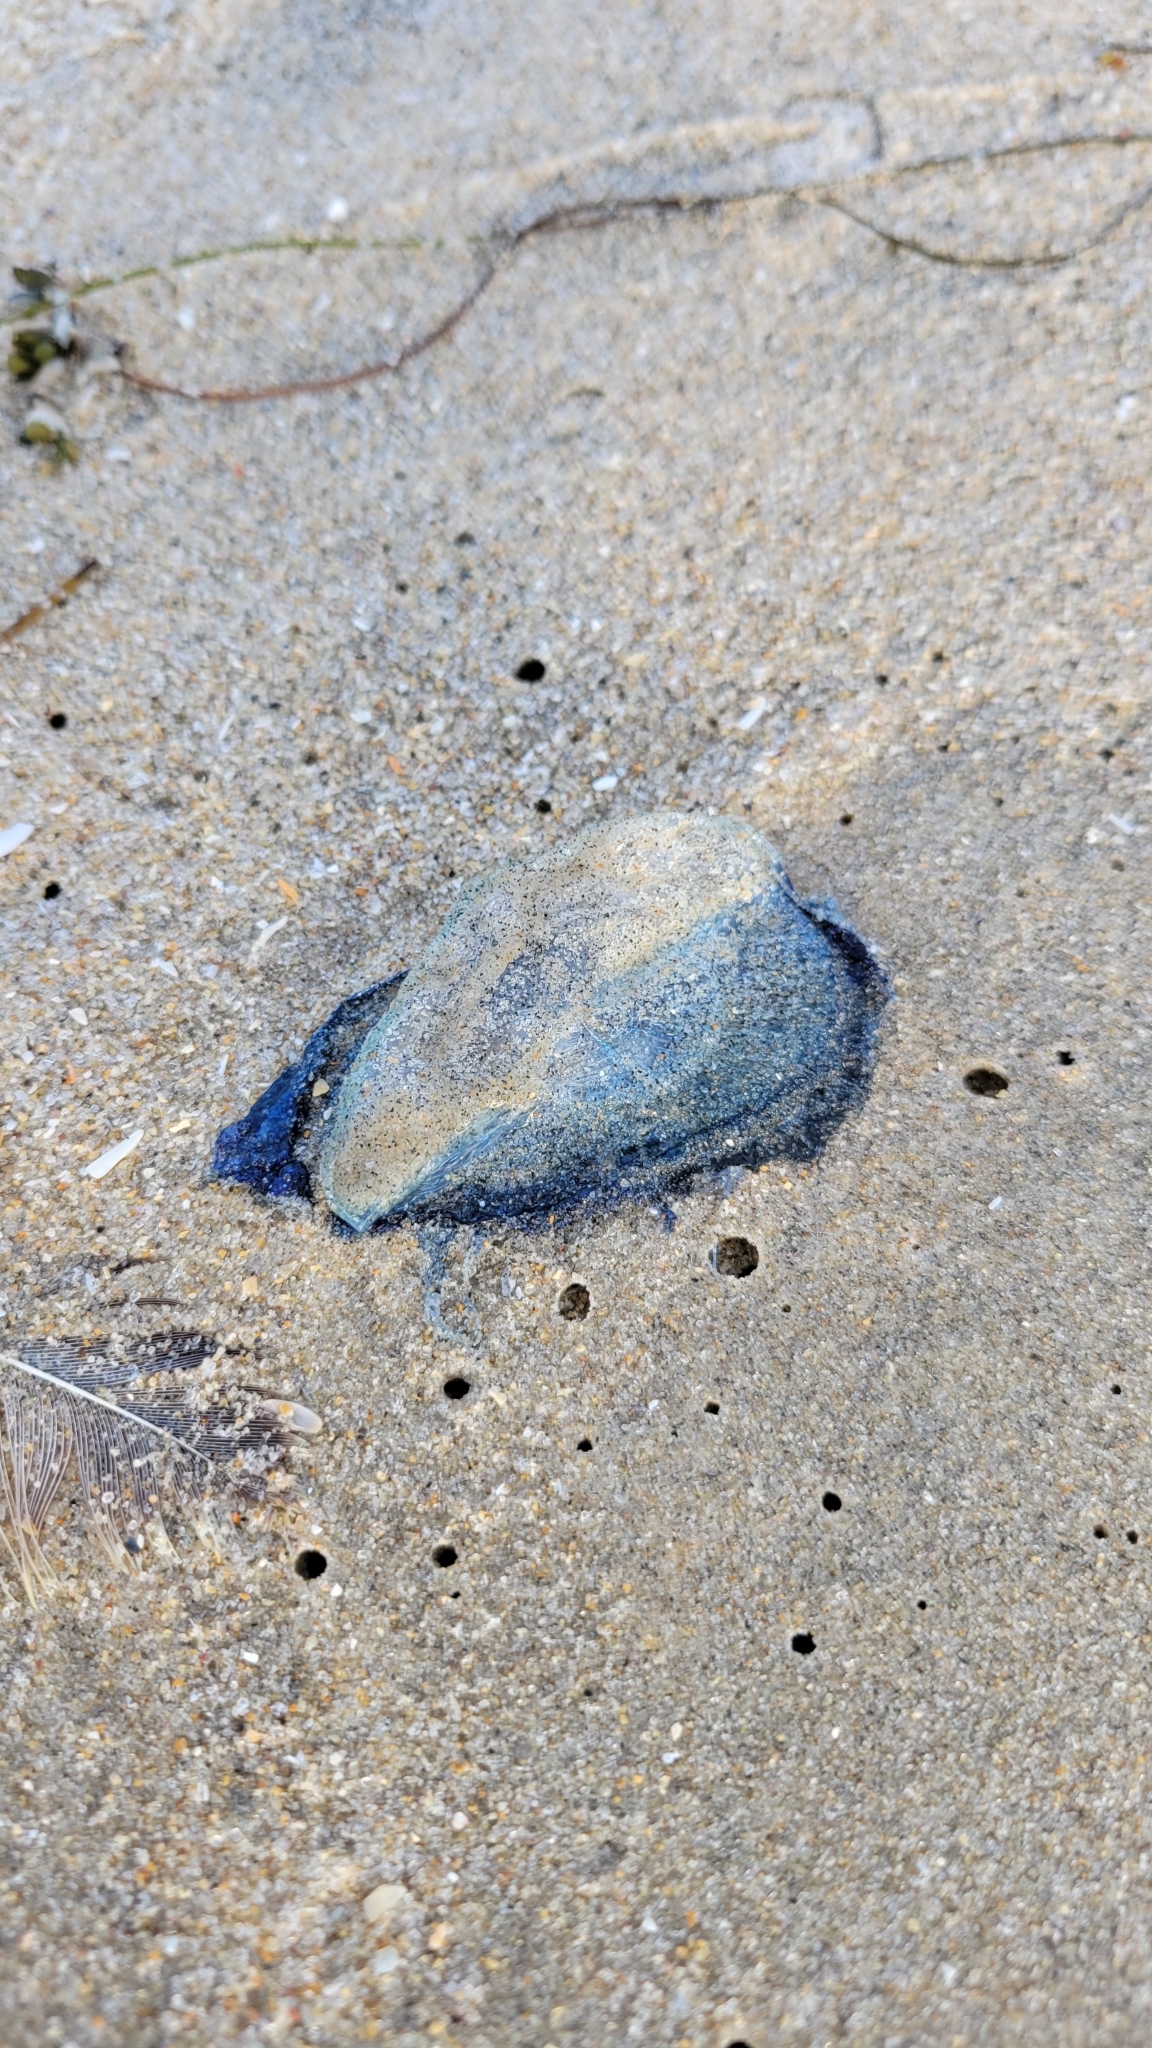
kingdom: Animalia
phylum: Cnidaria
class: Hydrozoa
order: Anthoathecata
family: Porpitidae
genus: Velella
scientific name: Velella velella
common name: By-the-wind-sailor
